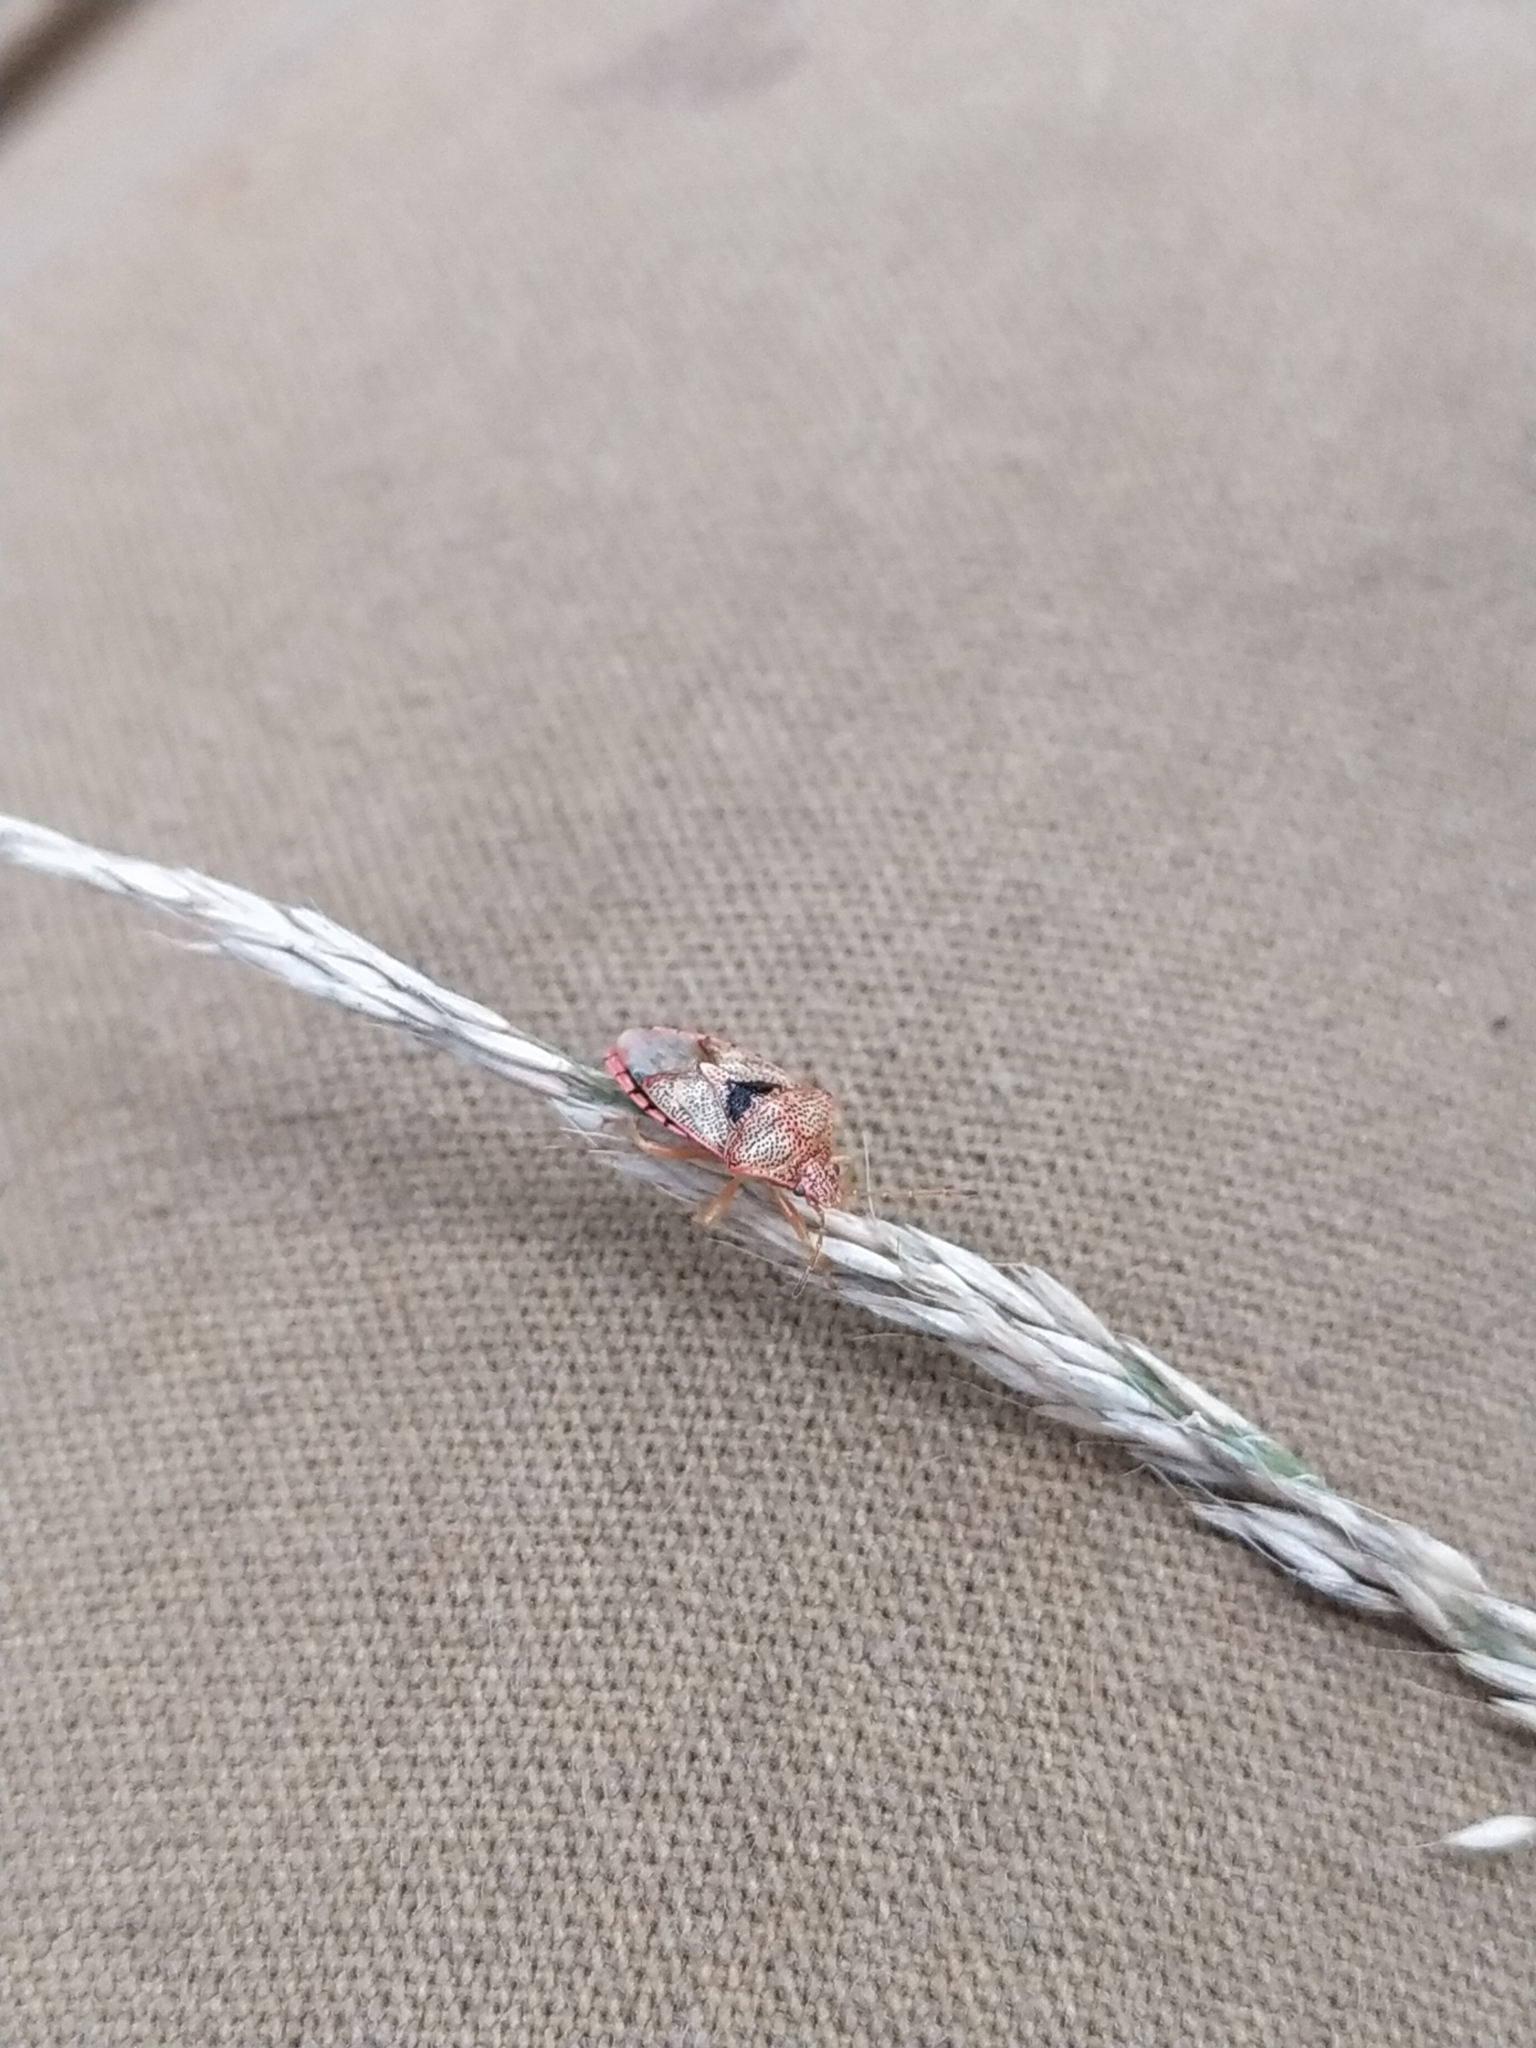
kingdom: Animalia
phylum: Arthropoda
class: Insecta
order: Hemiptera
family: Acanthosomatidae
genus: Elasmucha
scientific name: Elasmucha grisea
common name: Parent bug
